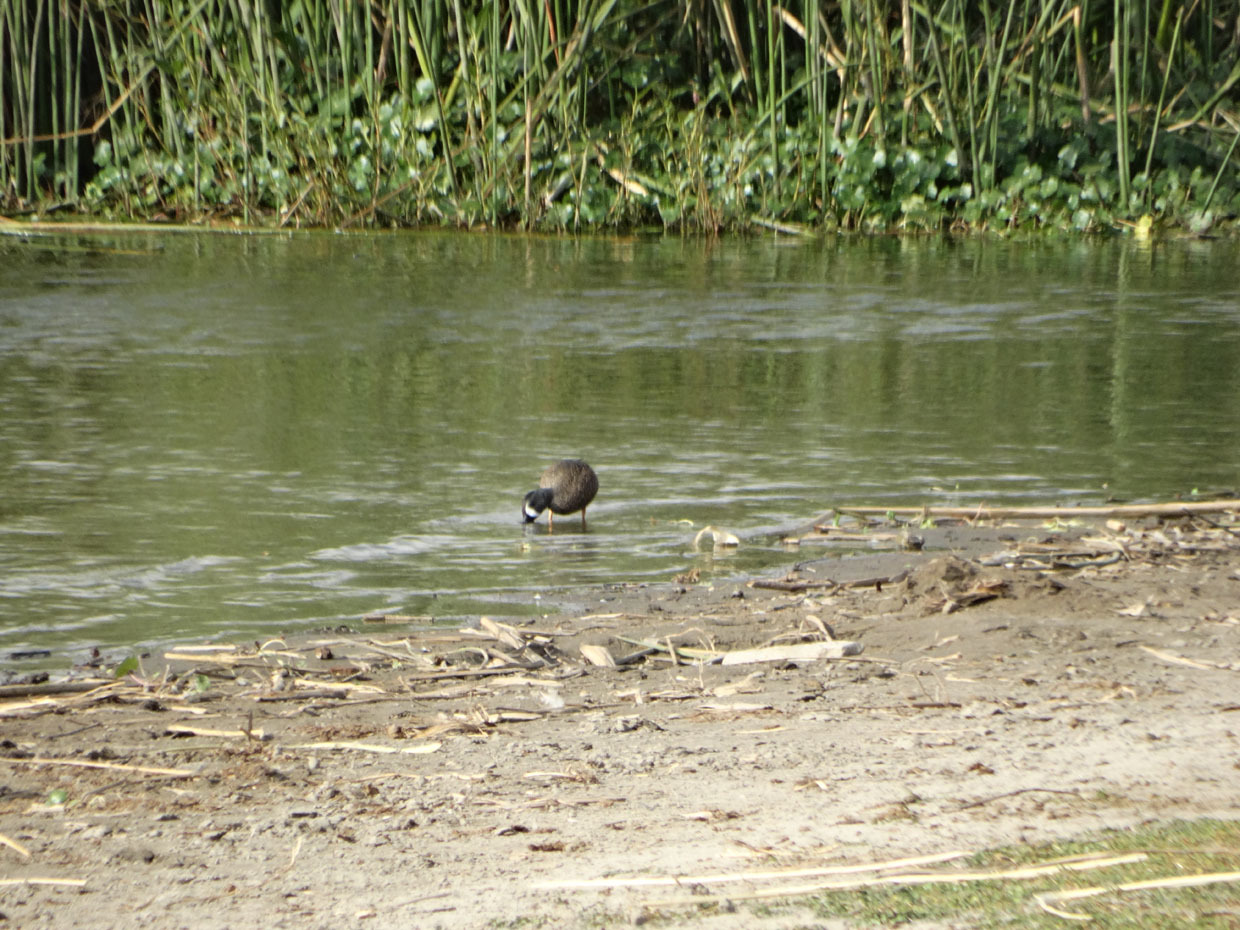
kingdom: Animalia
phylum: Chordata
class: Aves
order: Anseriformes
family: Anatidae
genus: Spatula
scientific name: Spatula discors
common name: Blue-winged teal
